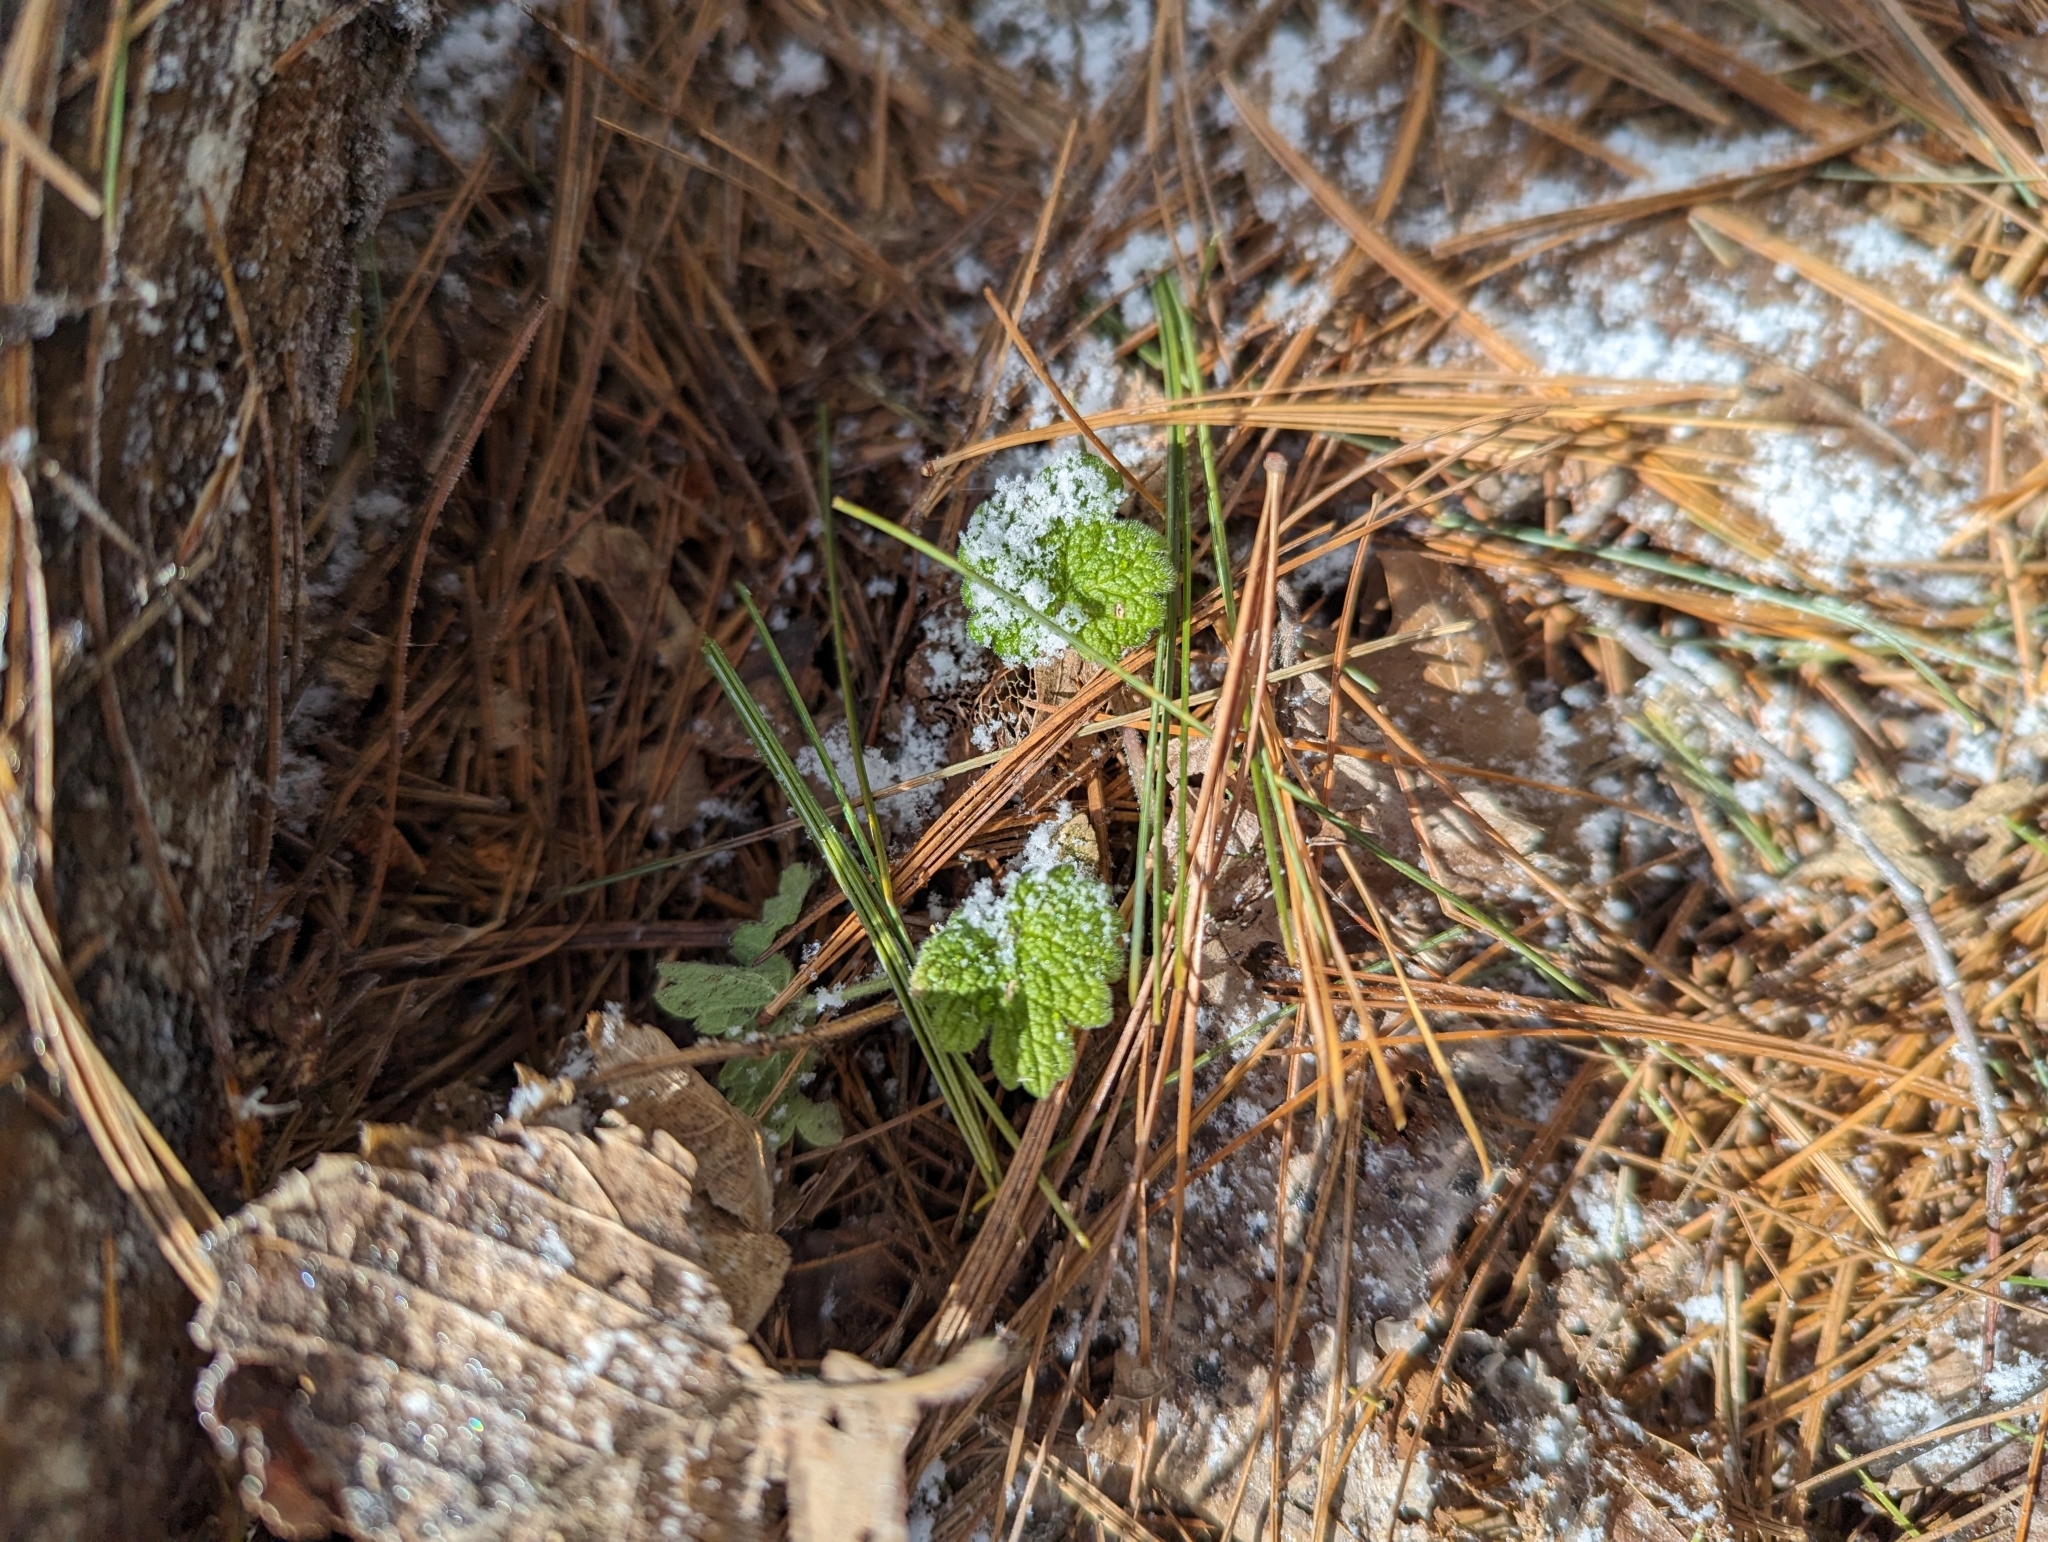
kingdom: Plantae
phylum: Tracheophyta
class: Magnoliopsida
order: Lamiales
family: Lamiaceae
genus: Leonurus
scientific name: Leonurus cardiaca
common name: Motherwort
